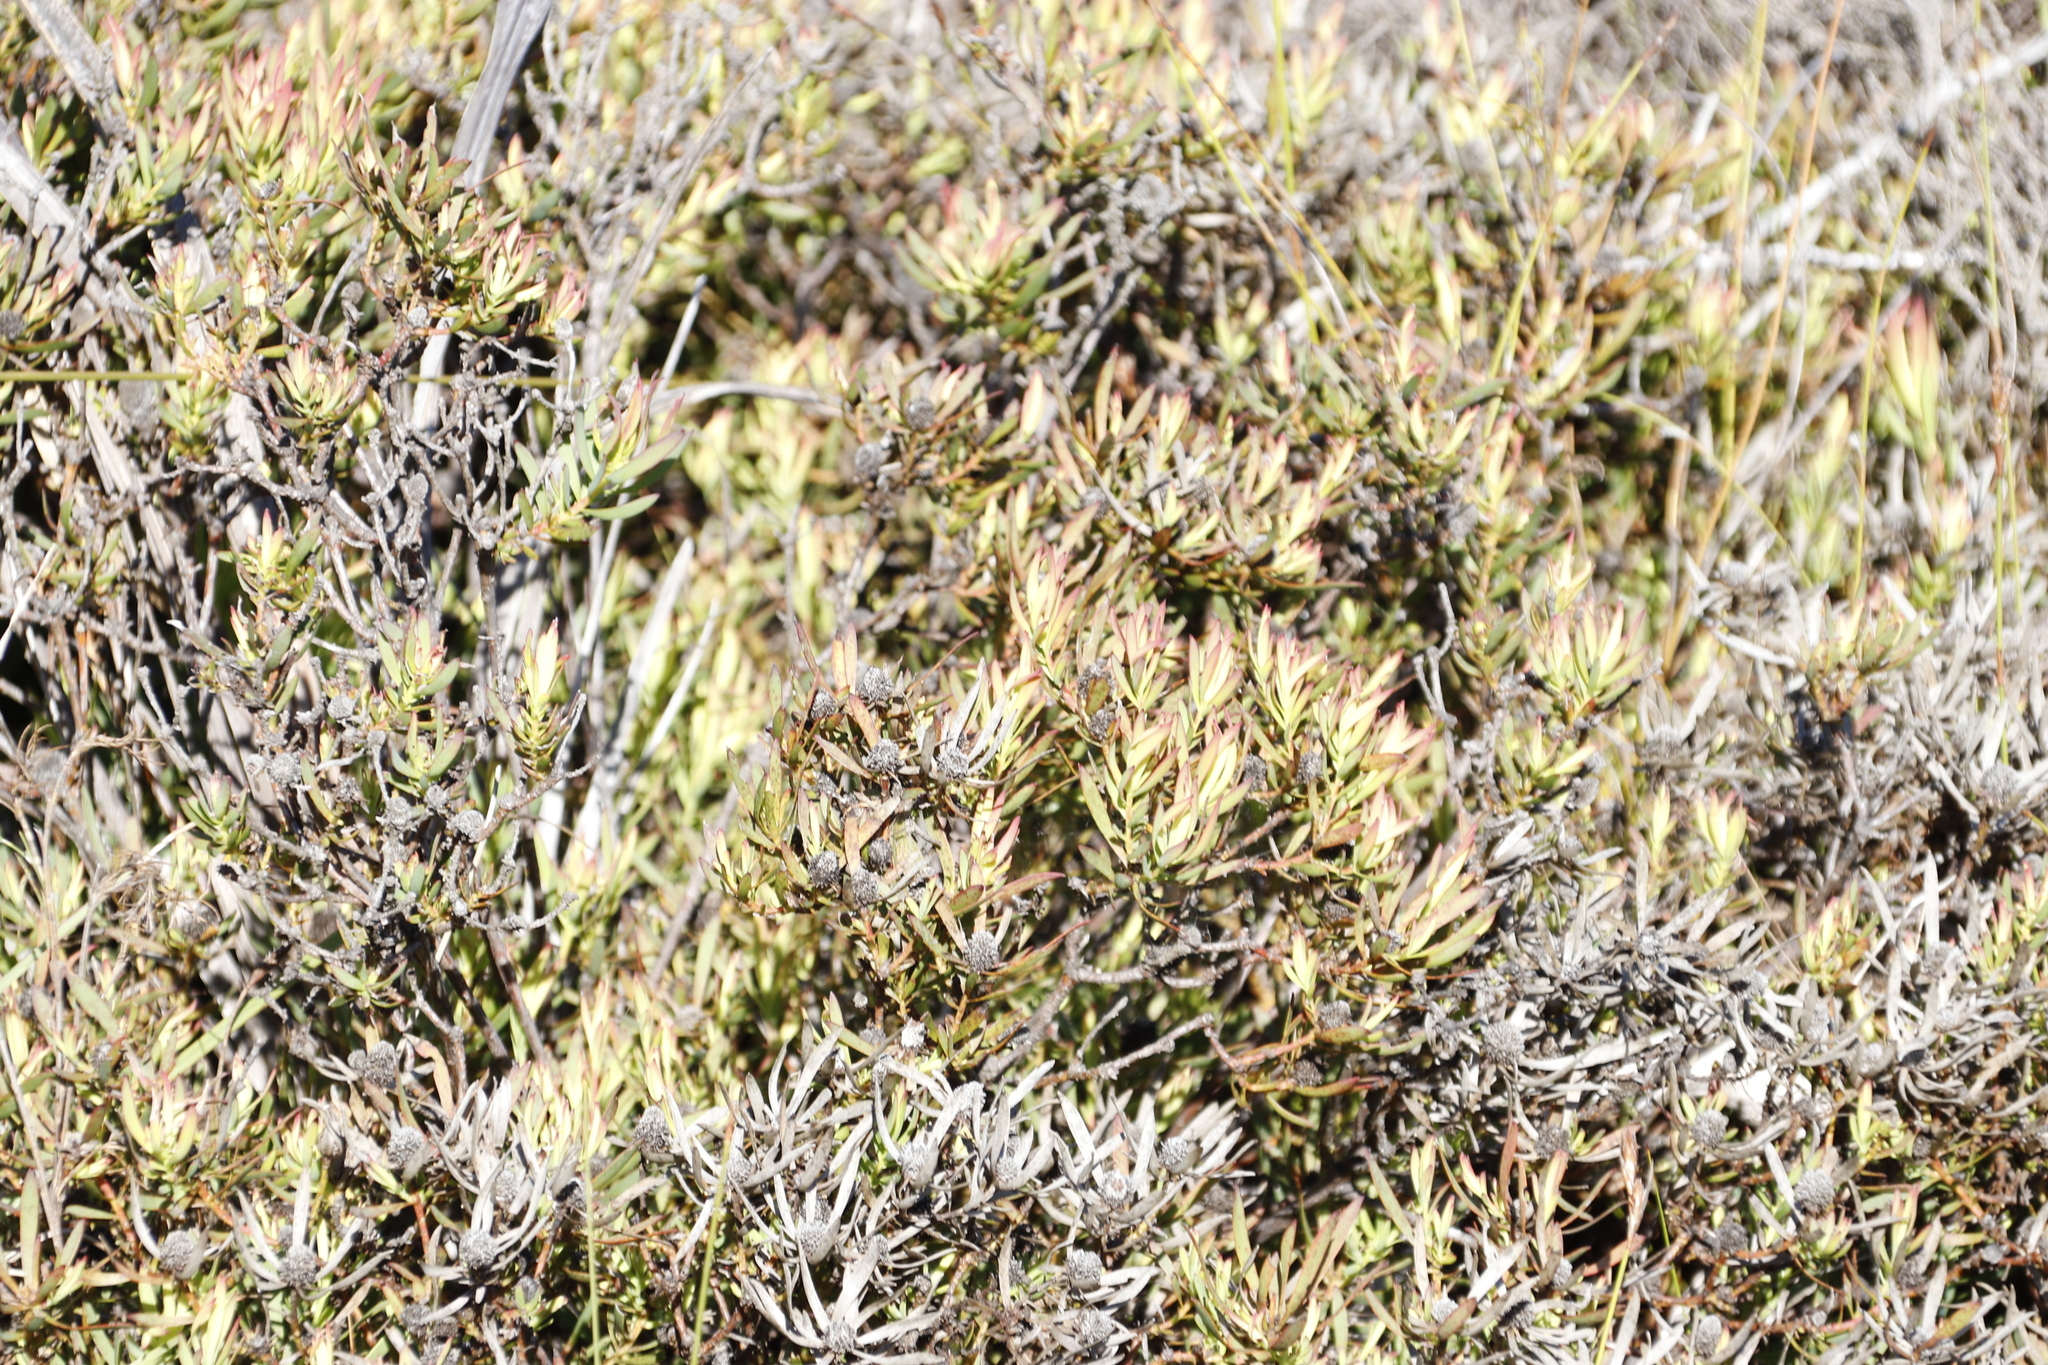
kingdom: Plantae
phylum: Tracheophyta
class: Magnoliopsida
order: Proteales
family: Proteaceae
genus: Leucadendron
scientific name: Leucadendron salignum
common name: Common sunshine conebush
